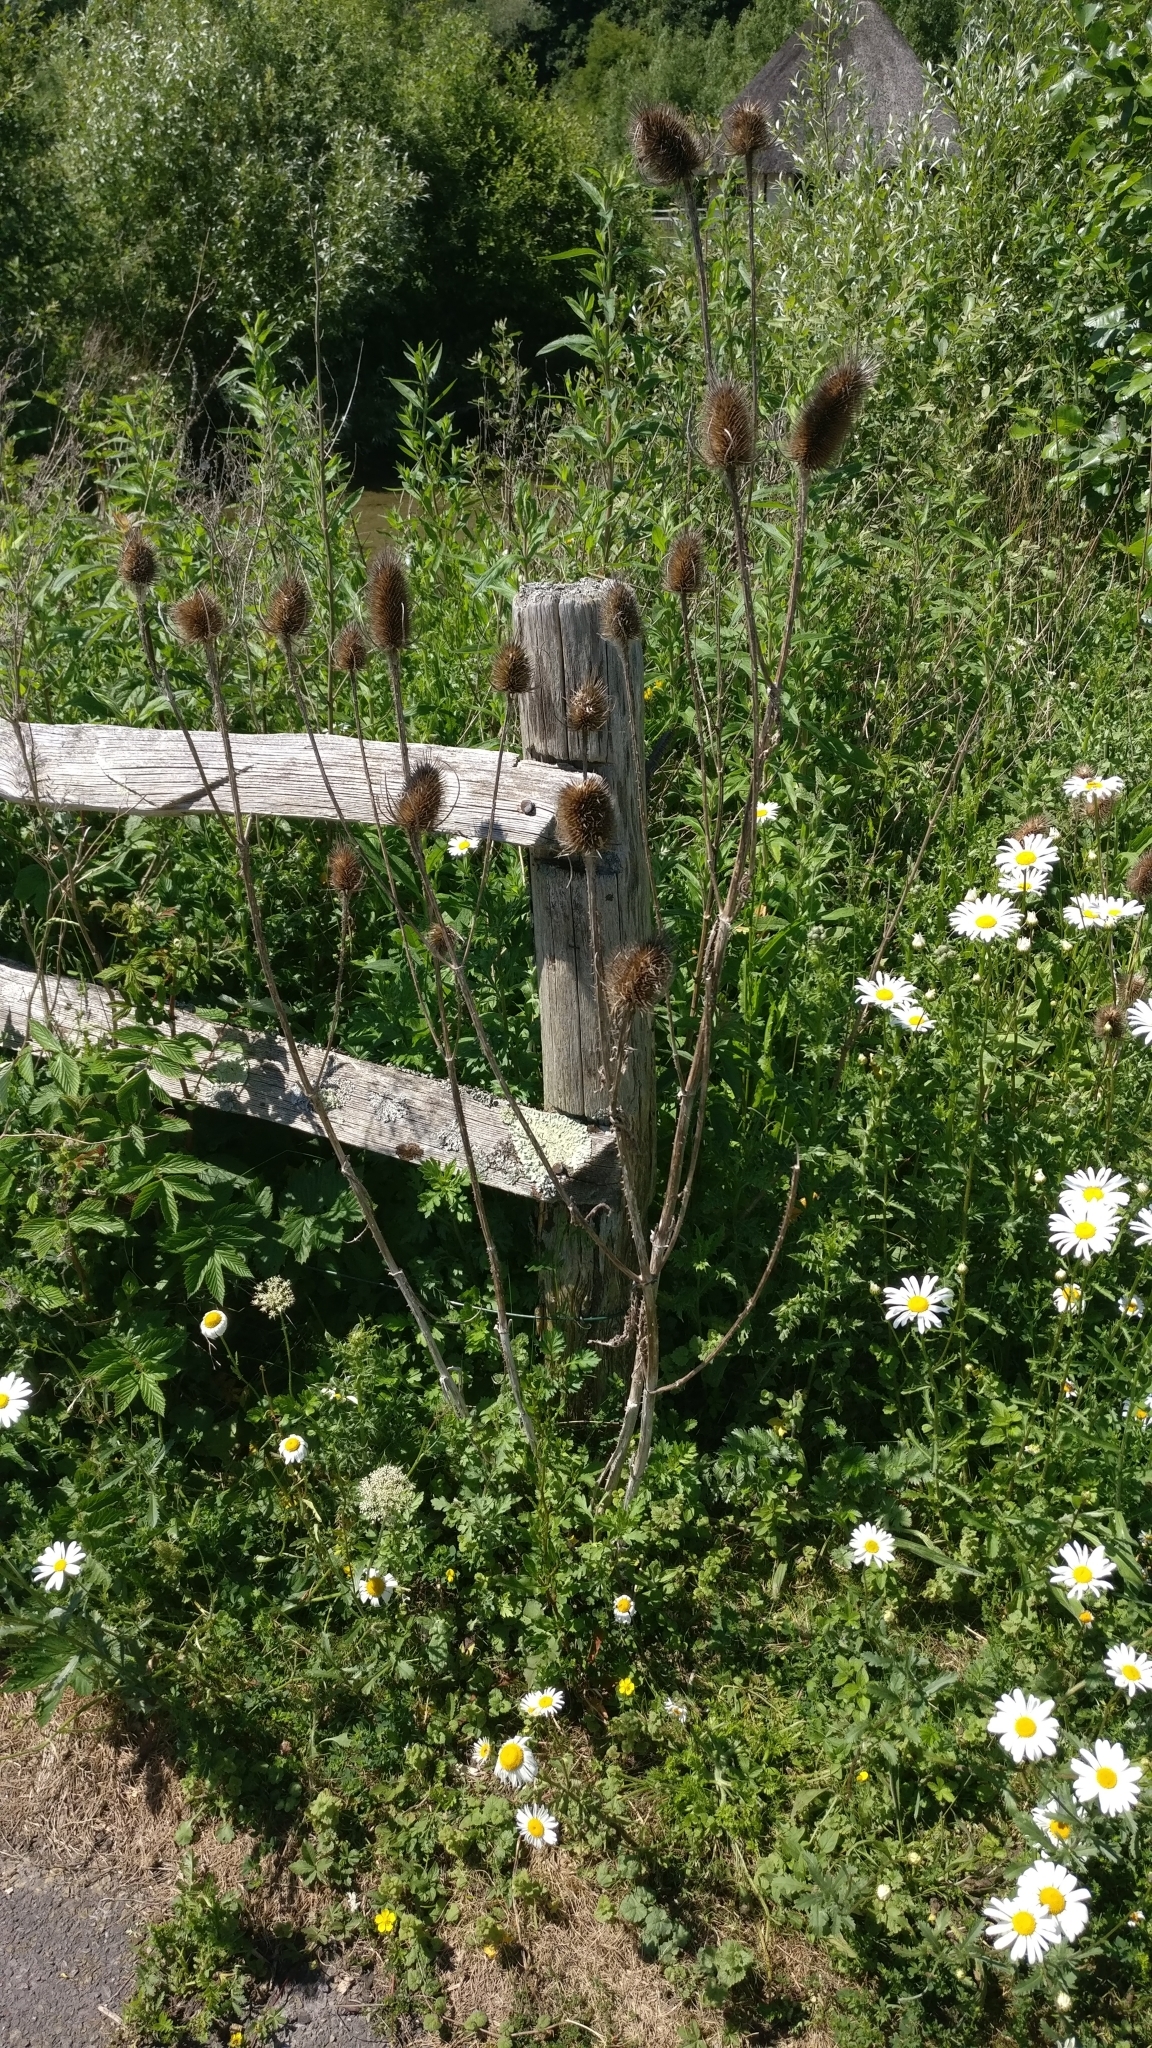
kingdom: Plantae
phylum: Tracheophyta
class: Magnoliopsida
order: Dipsacales
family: Caprifoliaceae
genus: Dipsacus
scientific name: Dipsacus fullonum
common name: Teasel
